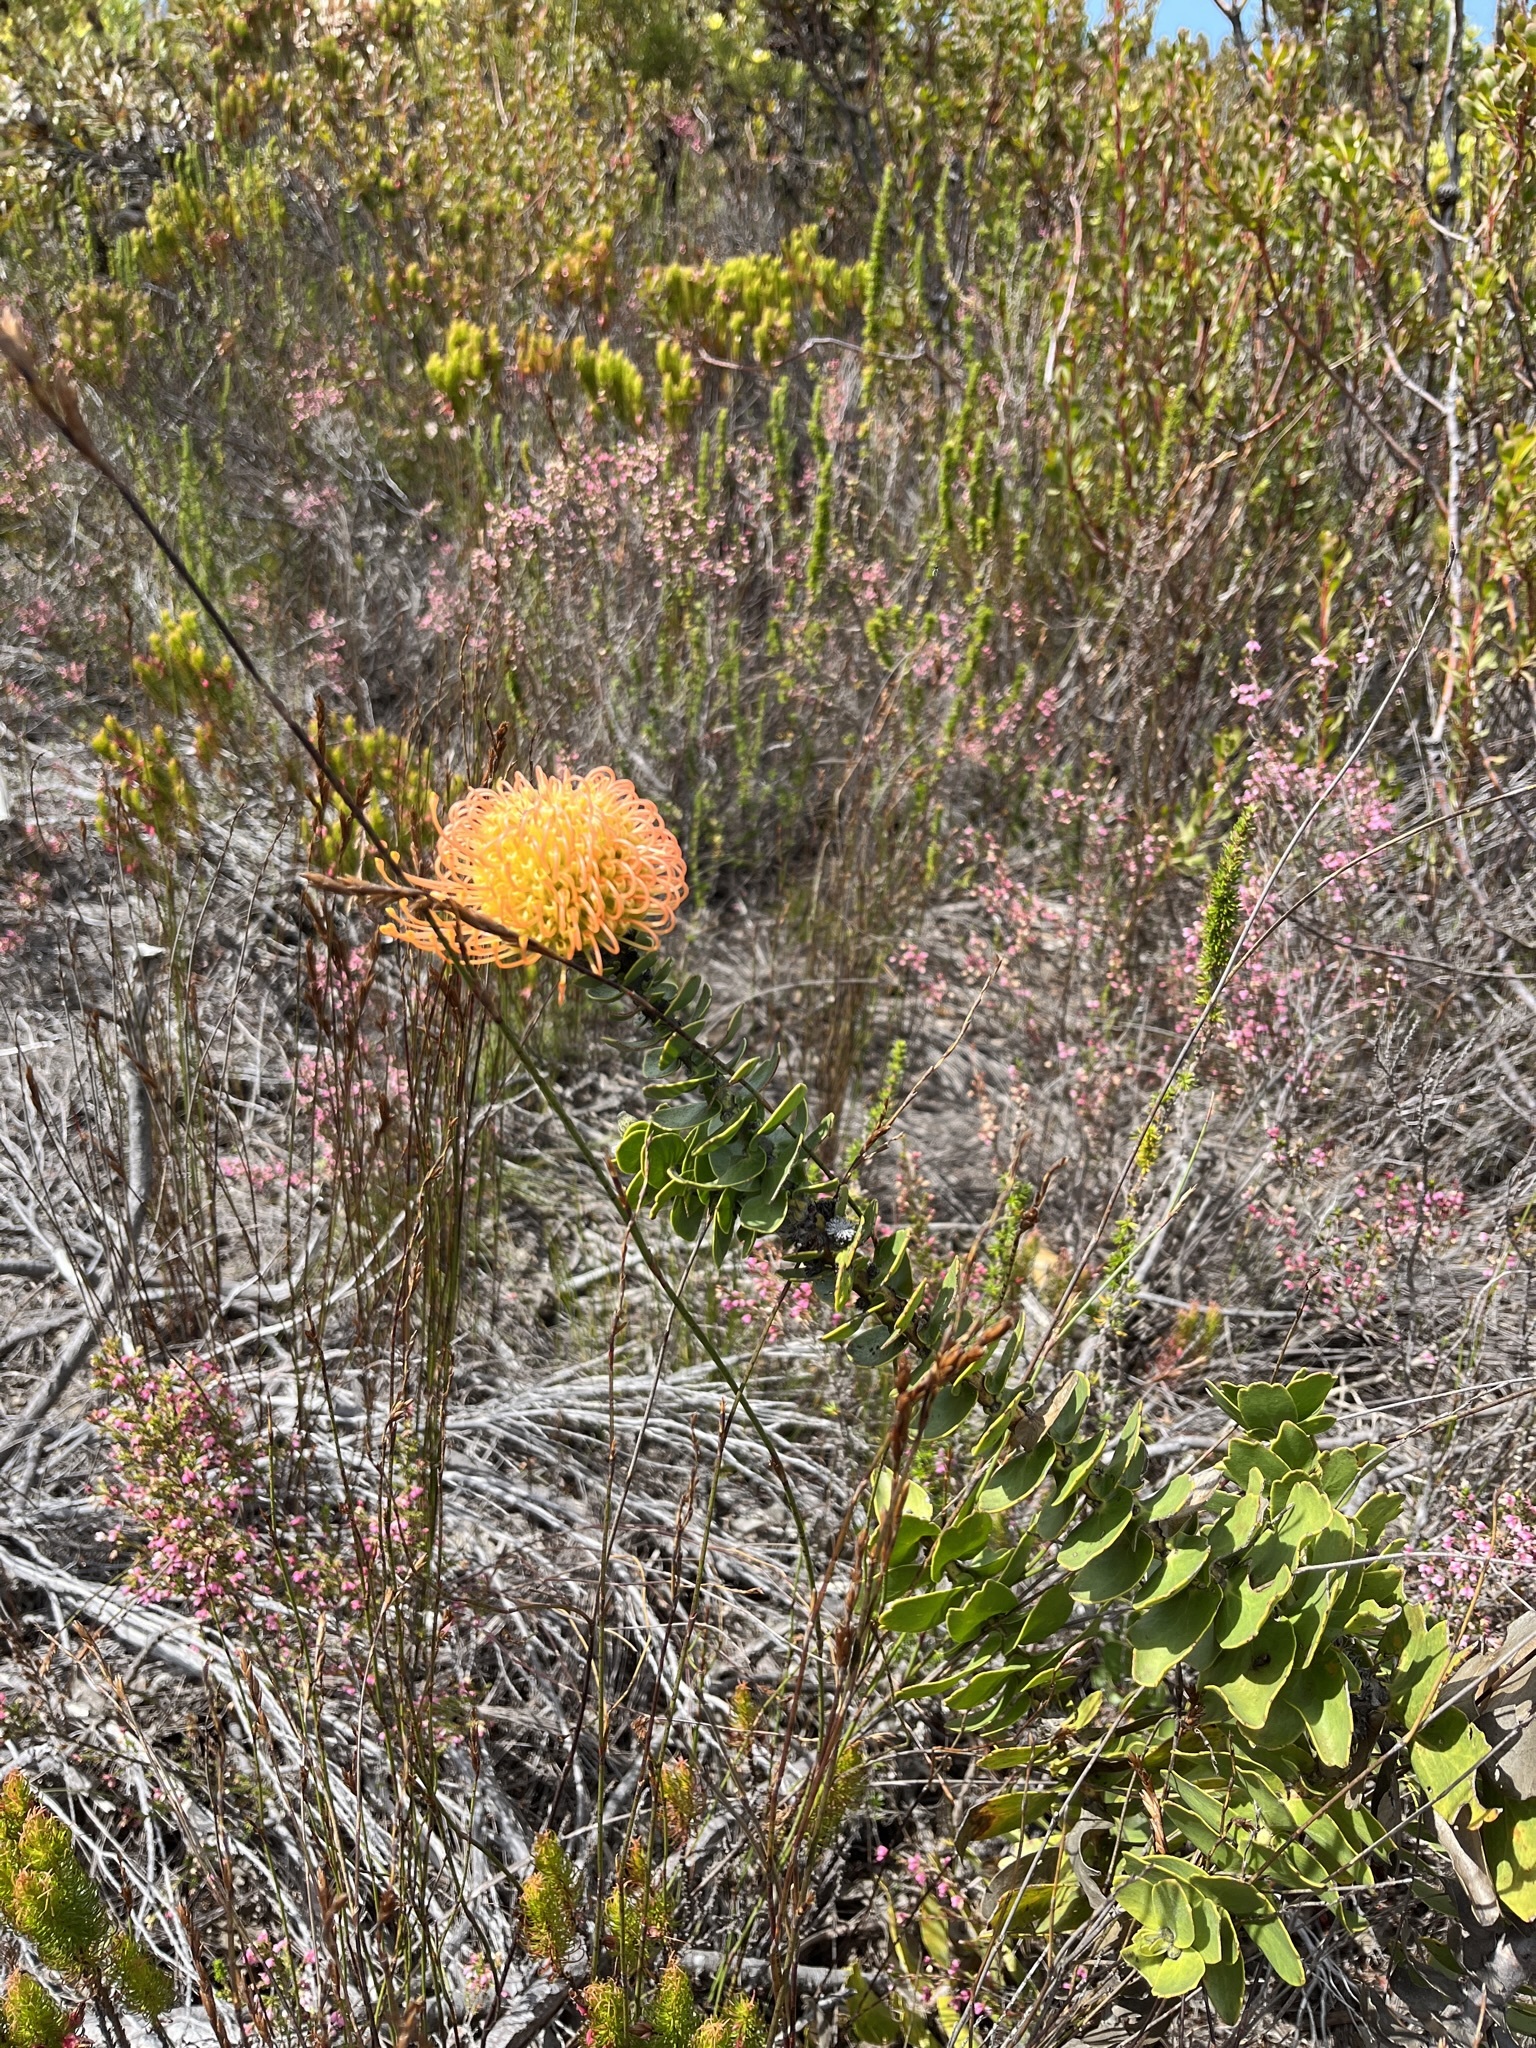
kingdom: Plantae
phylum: Tracheophyta
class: Magnoliopsida
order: Proteales
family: Proteaceae
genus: Leucospermum
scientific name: Leucospermum cordifolium
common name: Red pincushion-protea
